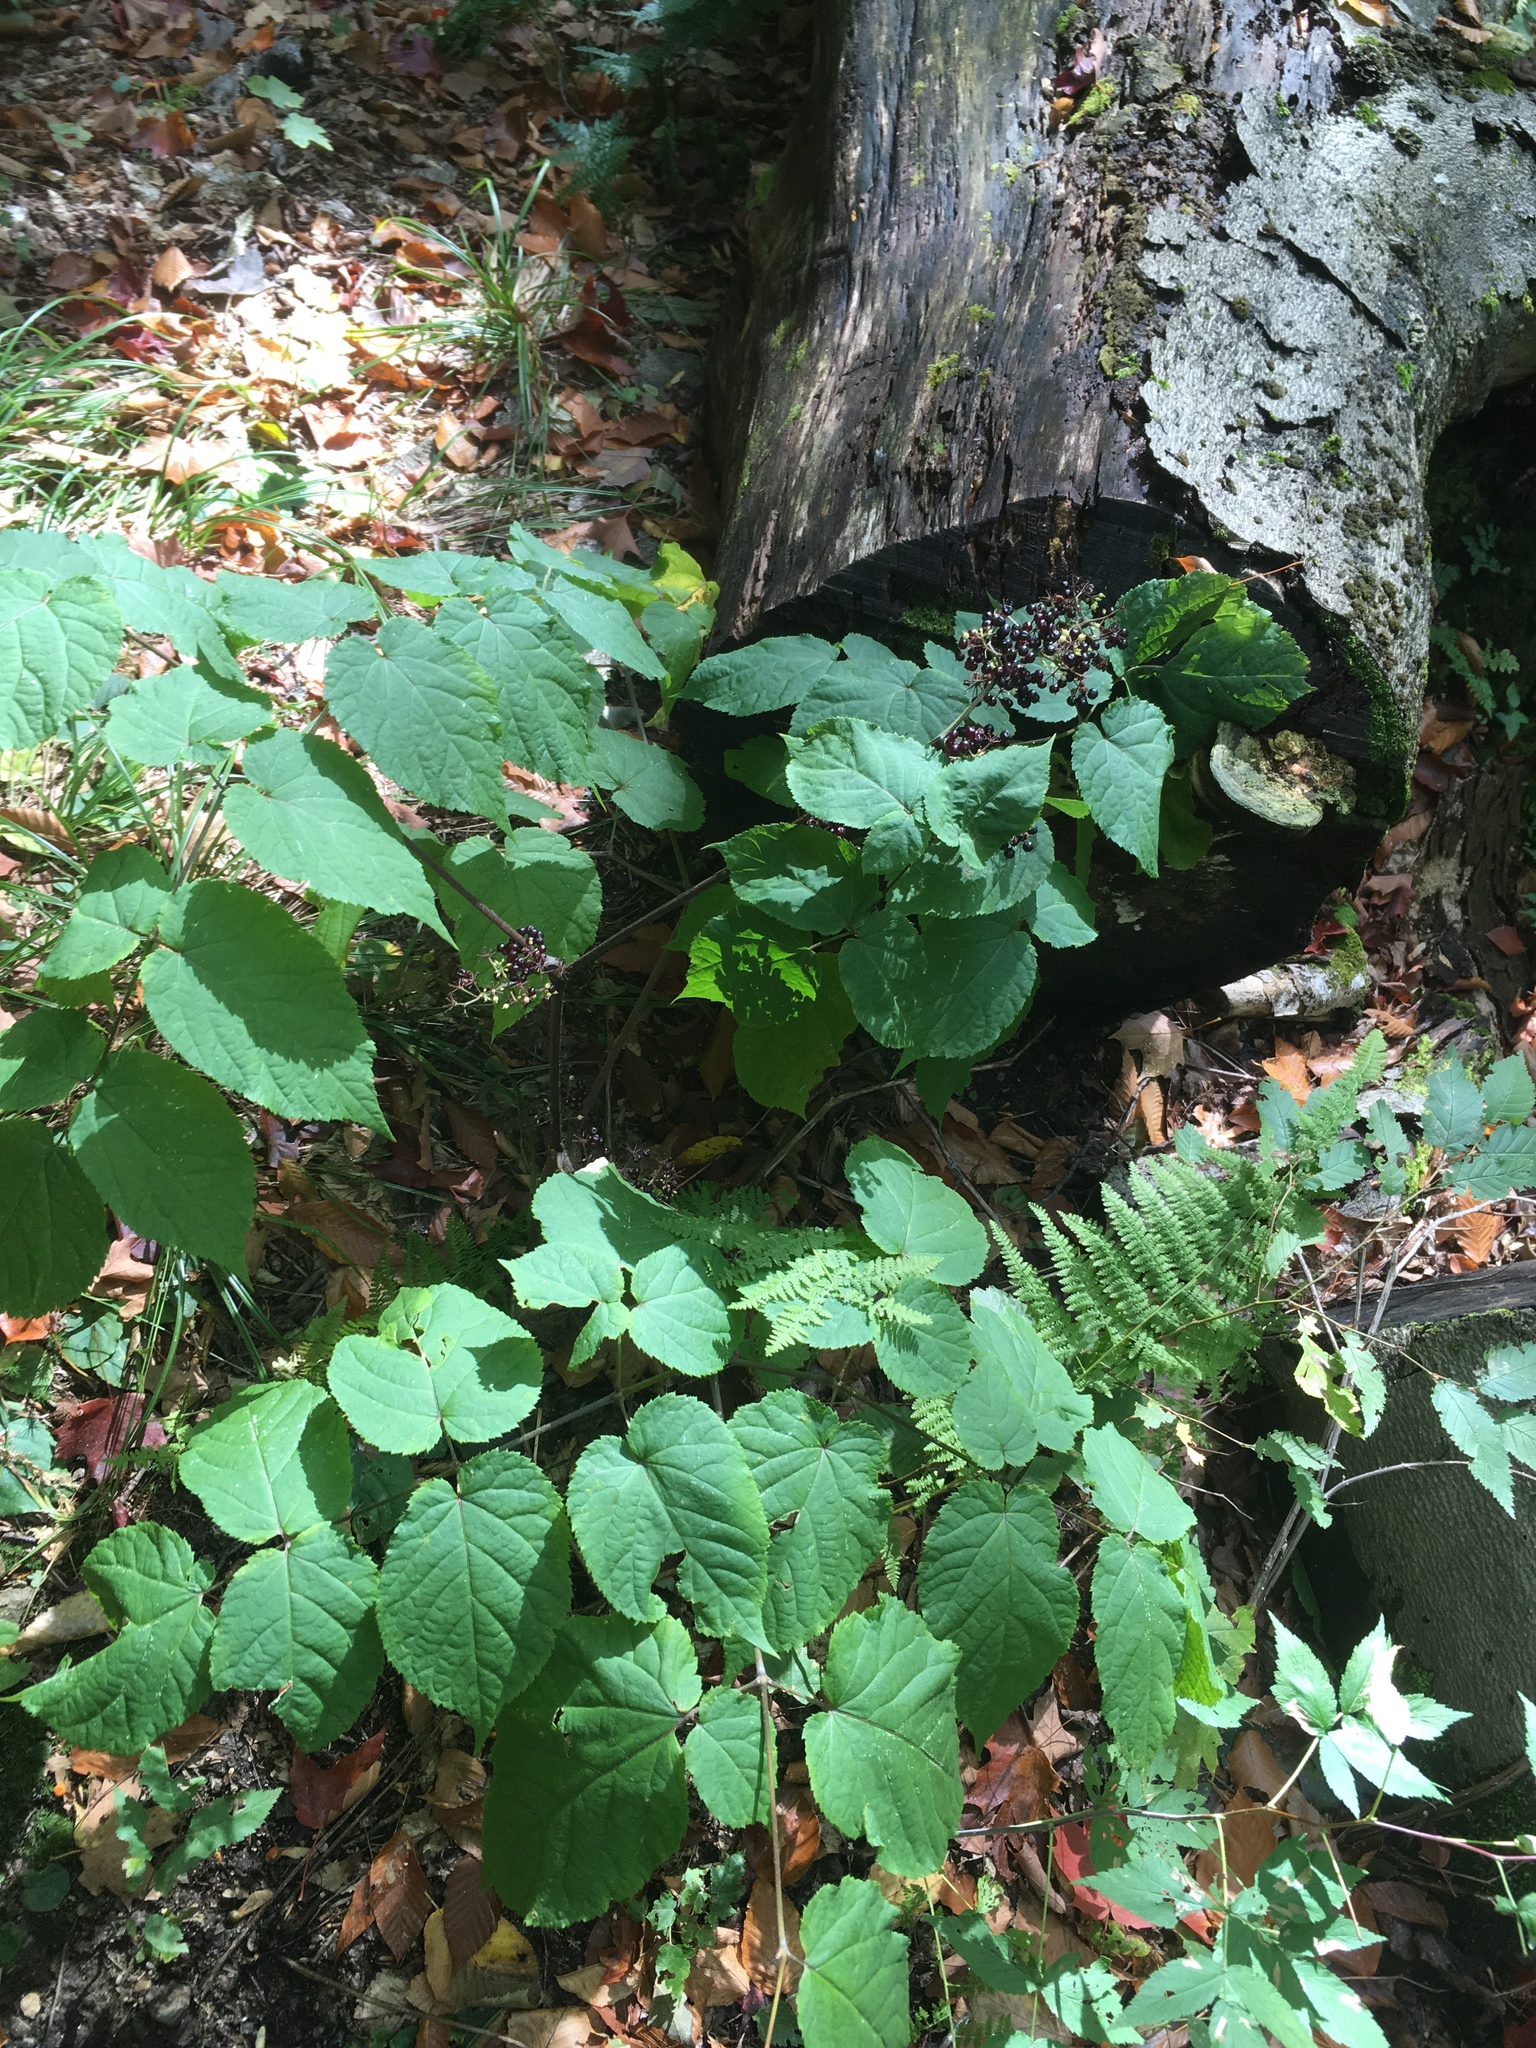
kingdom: Plantae
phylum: Tracheophyta
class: Magnoliopsida
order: Apiales
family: Araliaceae
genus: Aralia
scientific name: Aralia racemosa
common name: American-spikenard
